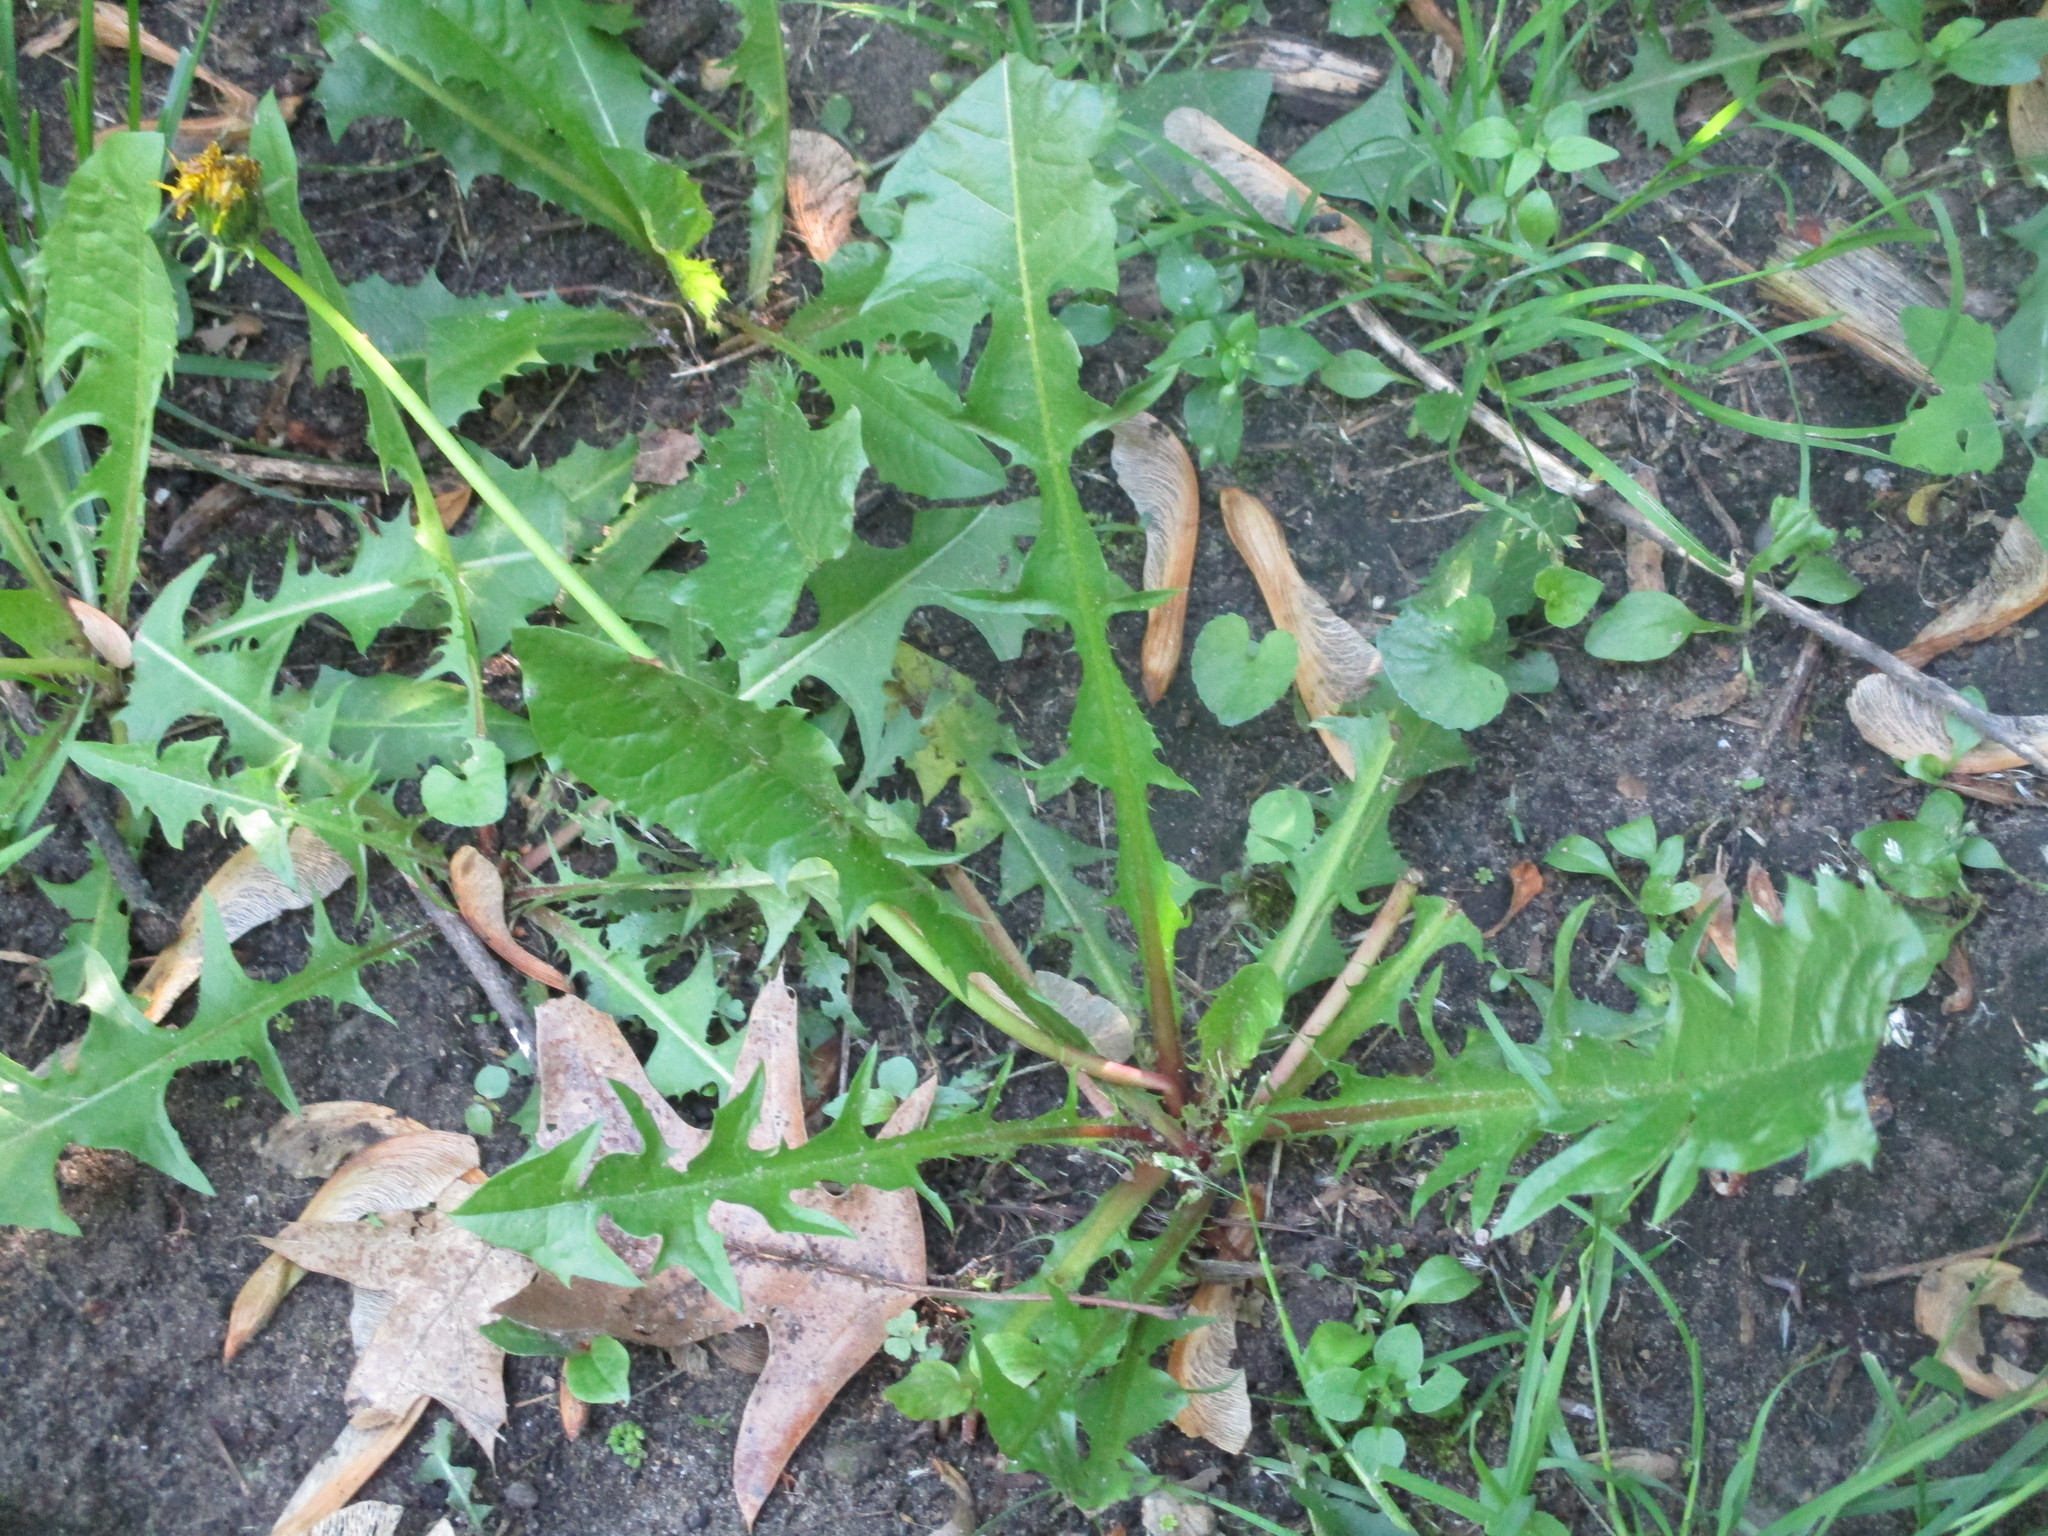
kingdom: Plantae
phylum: Tracheophyta
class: Magnoliopsida
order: Asterales
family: Asteraceae
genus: Taraxacum
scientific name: Taraxacum officinale
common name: Common dandelion
